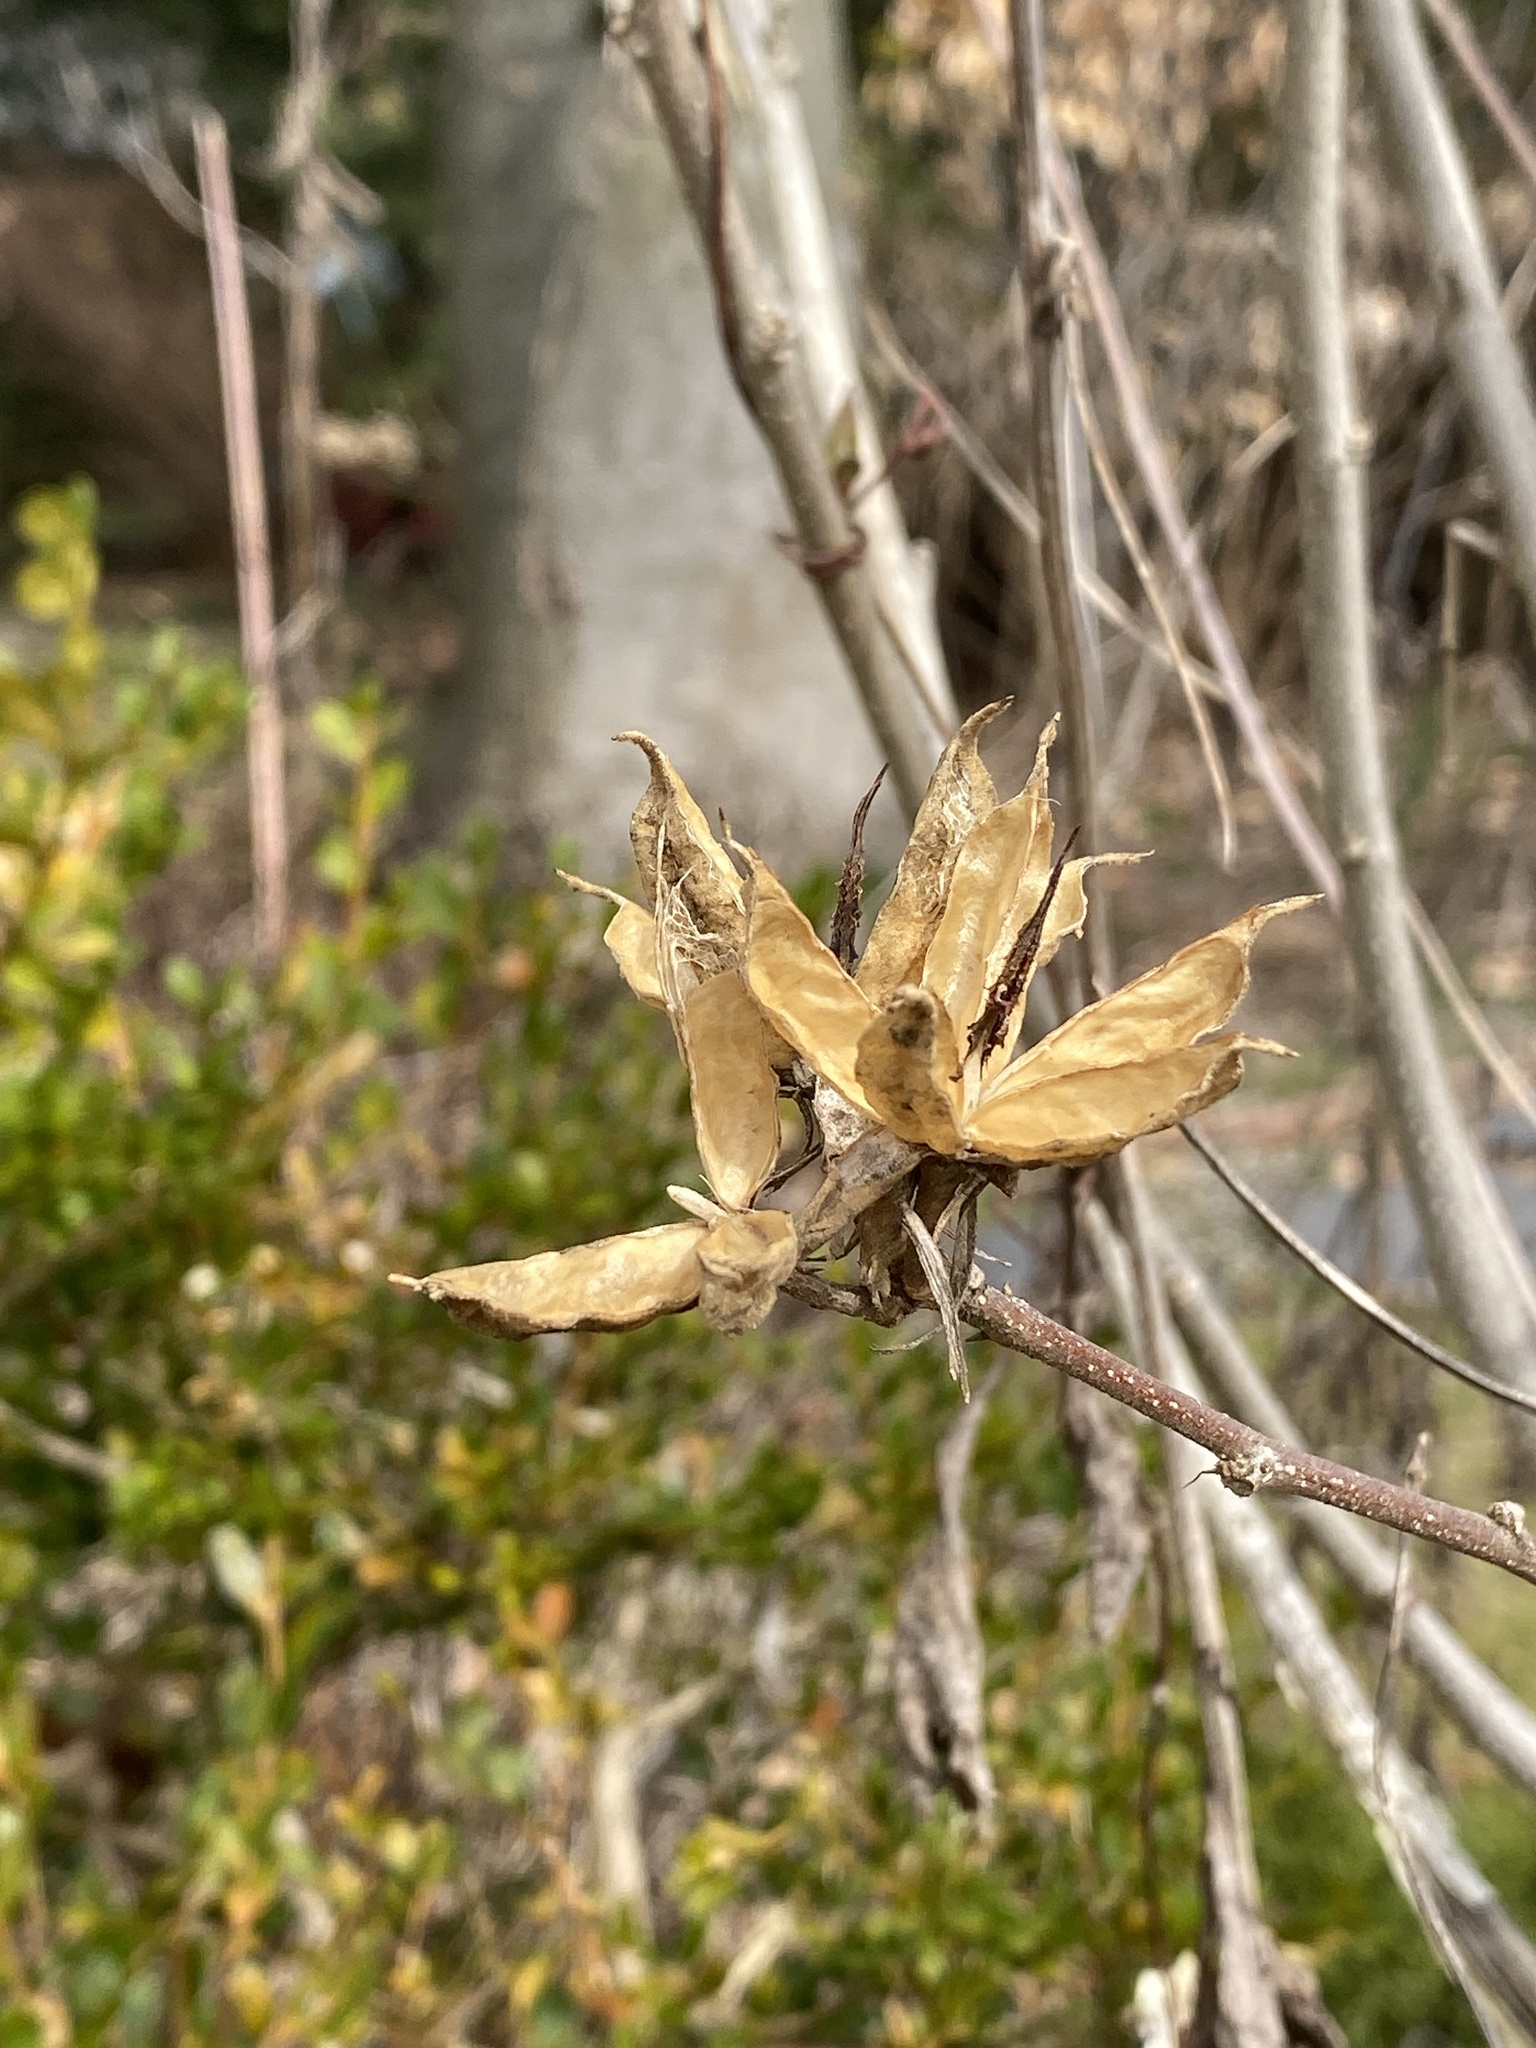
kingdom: Plantae
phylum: Tracheophyta
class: Magnoliopsida
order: Malvales
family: Malvaceae
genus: Hibiscus
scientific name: Hibiscus syriacus
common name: Syrian ketmia
